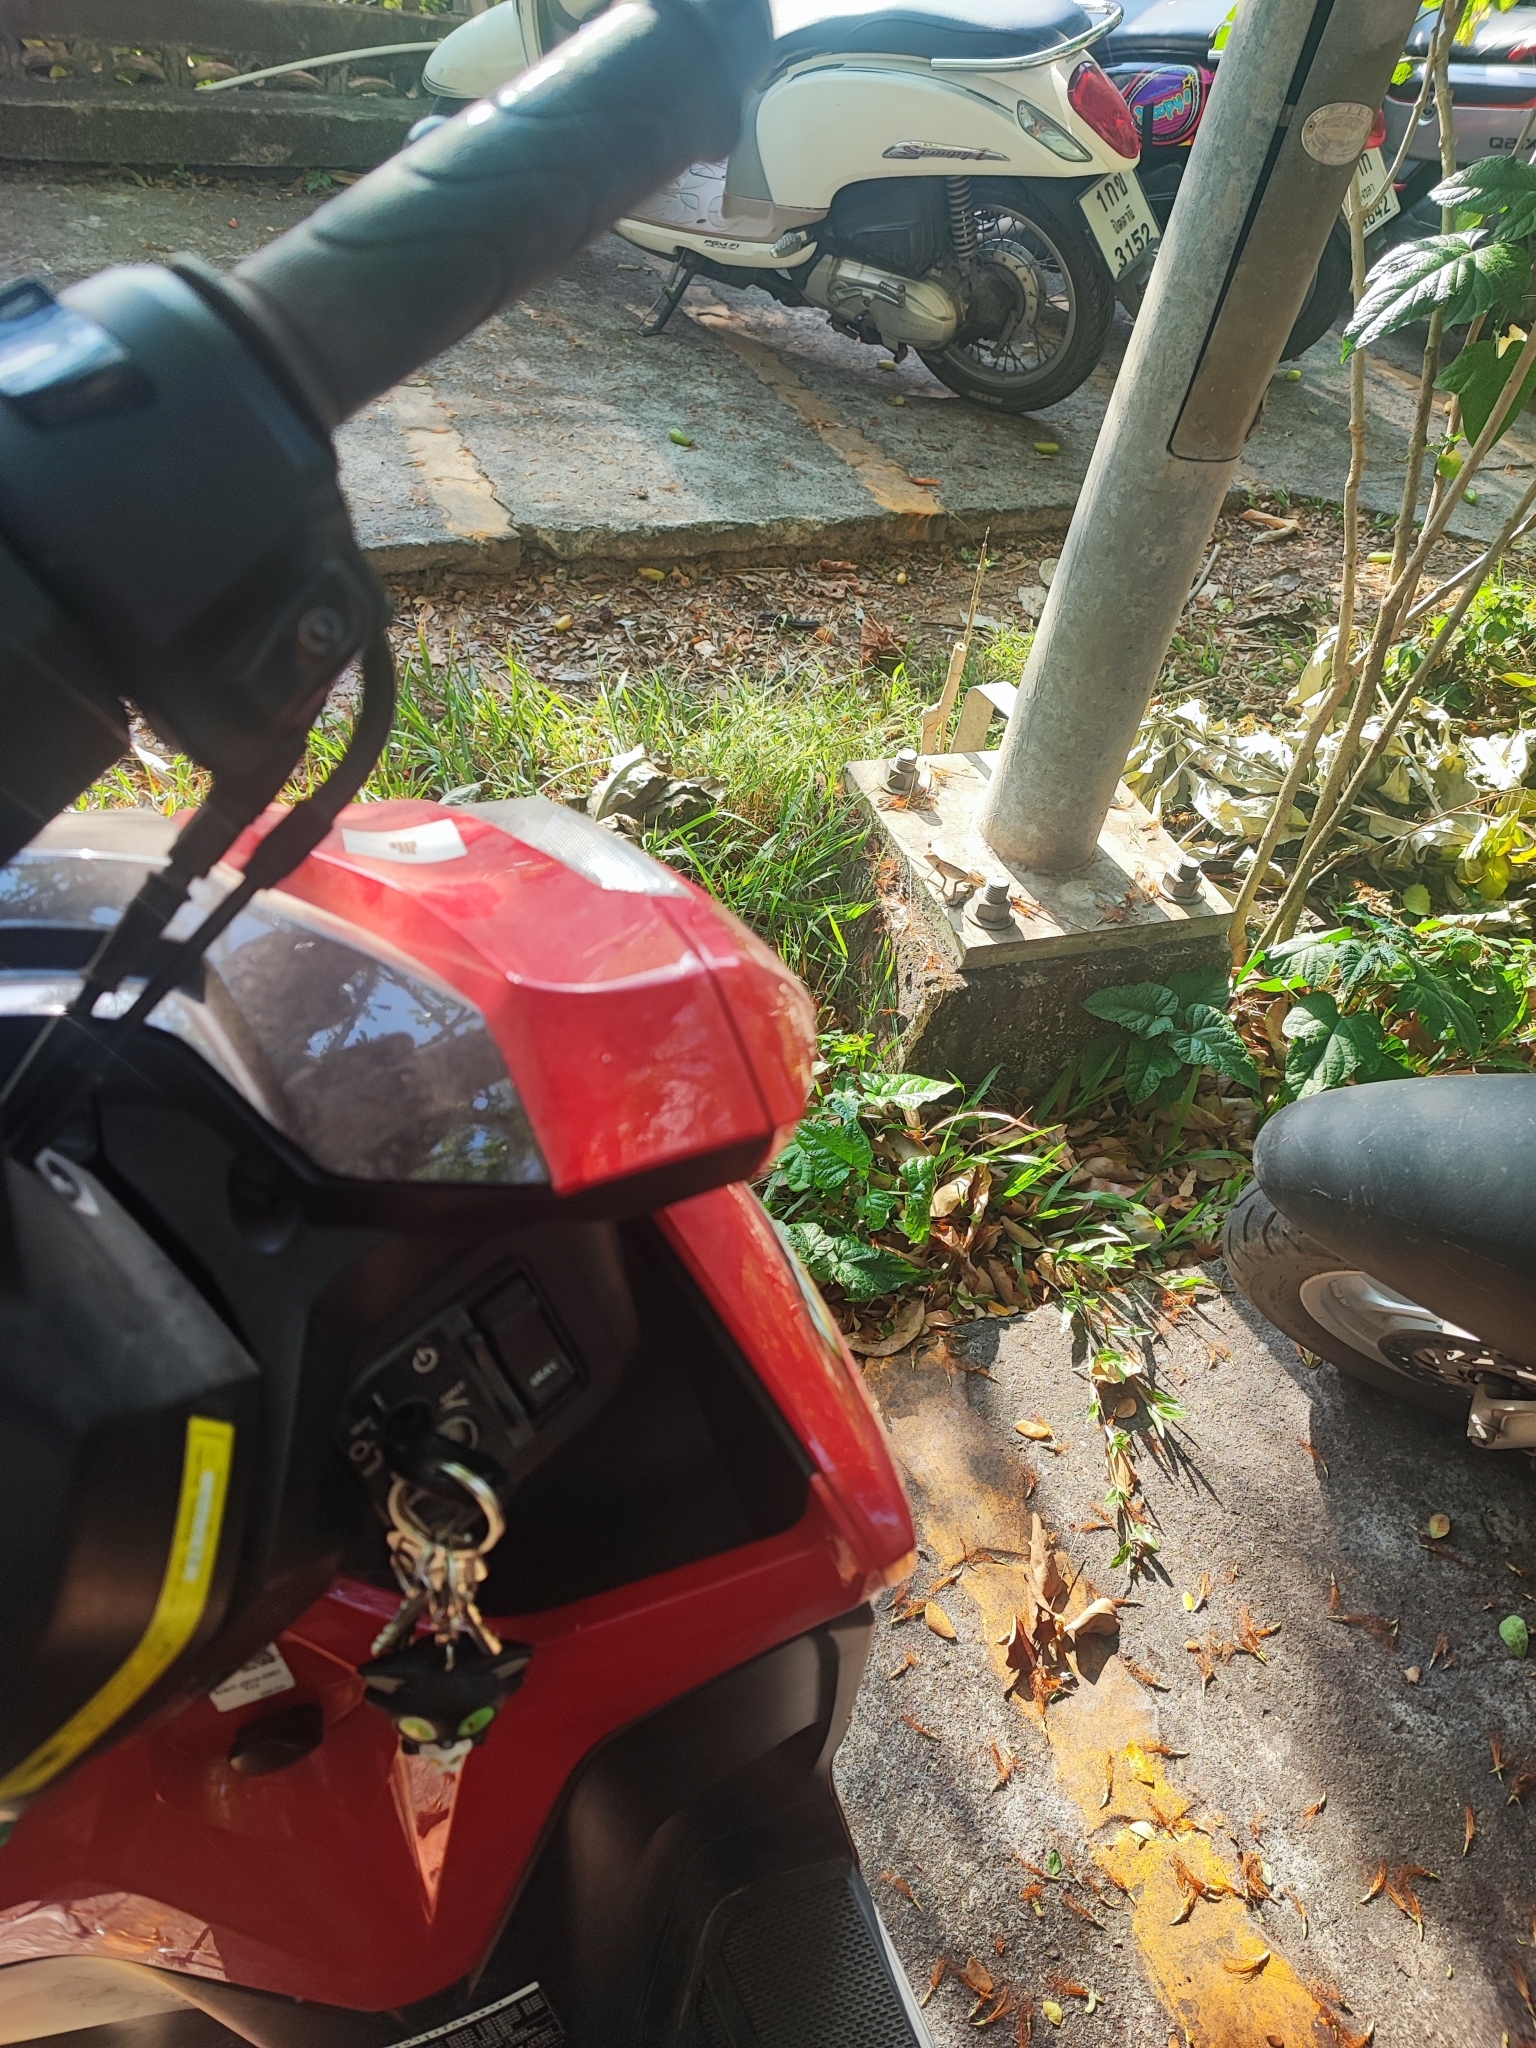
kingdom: Animalia
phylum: Chordata
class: Squamata
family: Agamidae
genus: Calotes
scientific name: Calotes versicolor
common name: Oriental garden lizard
